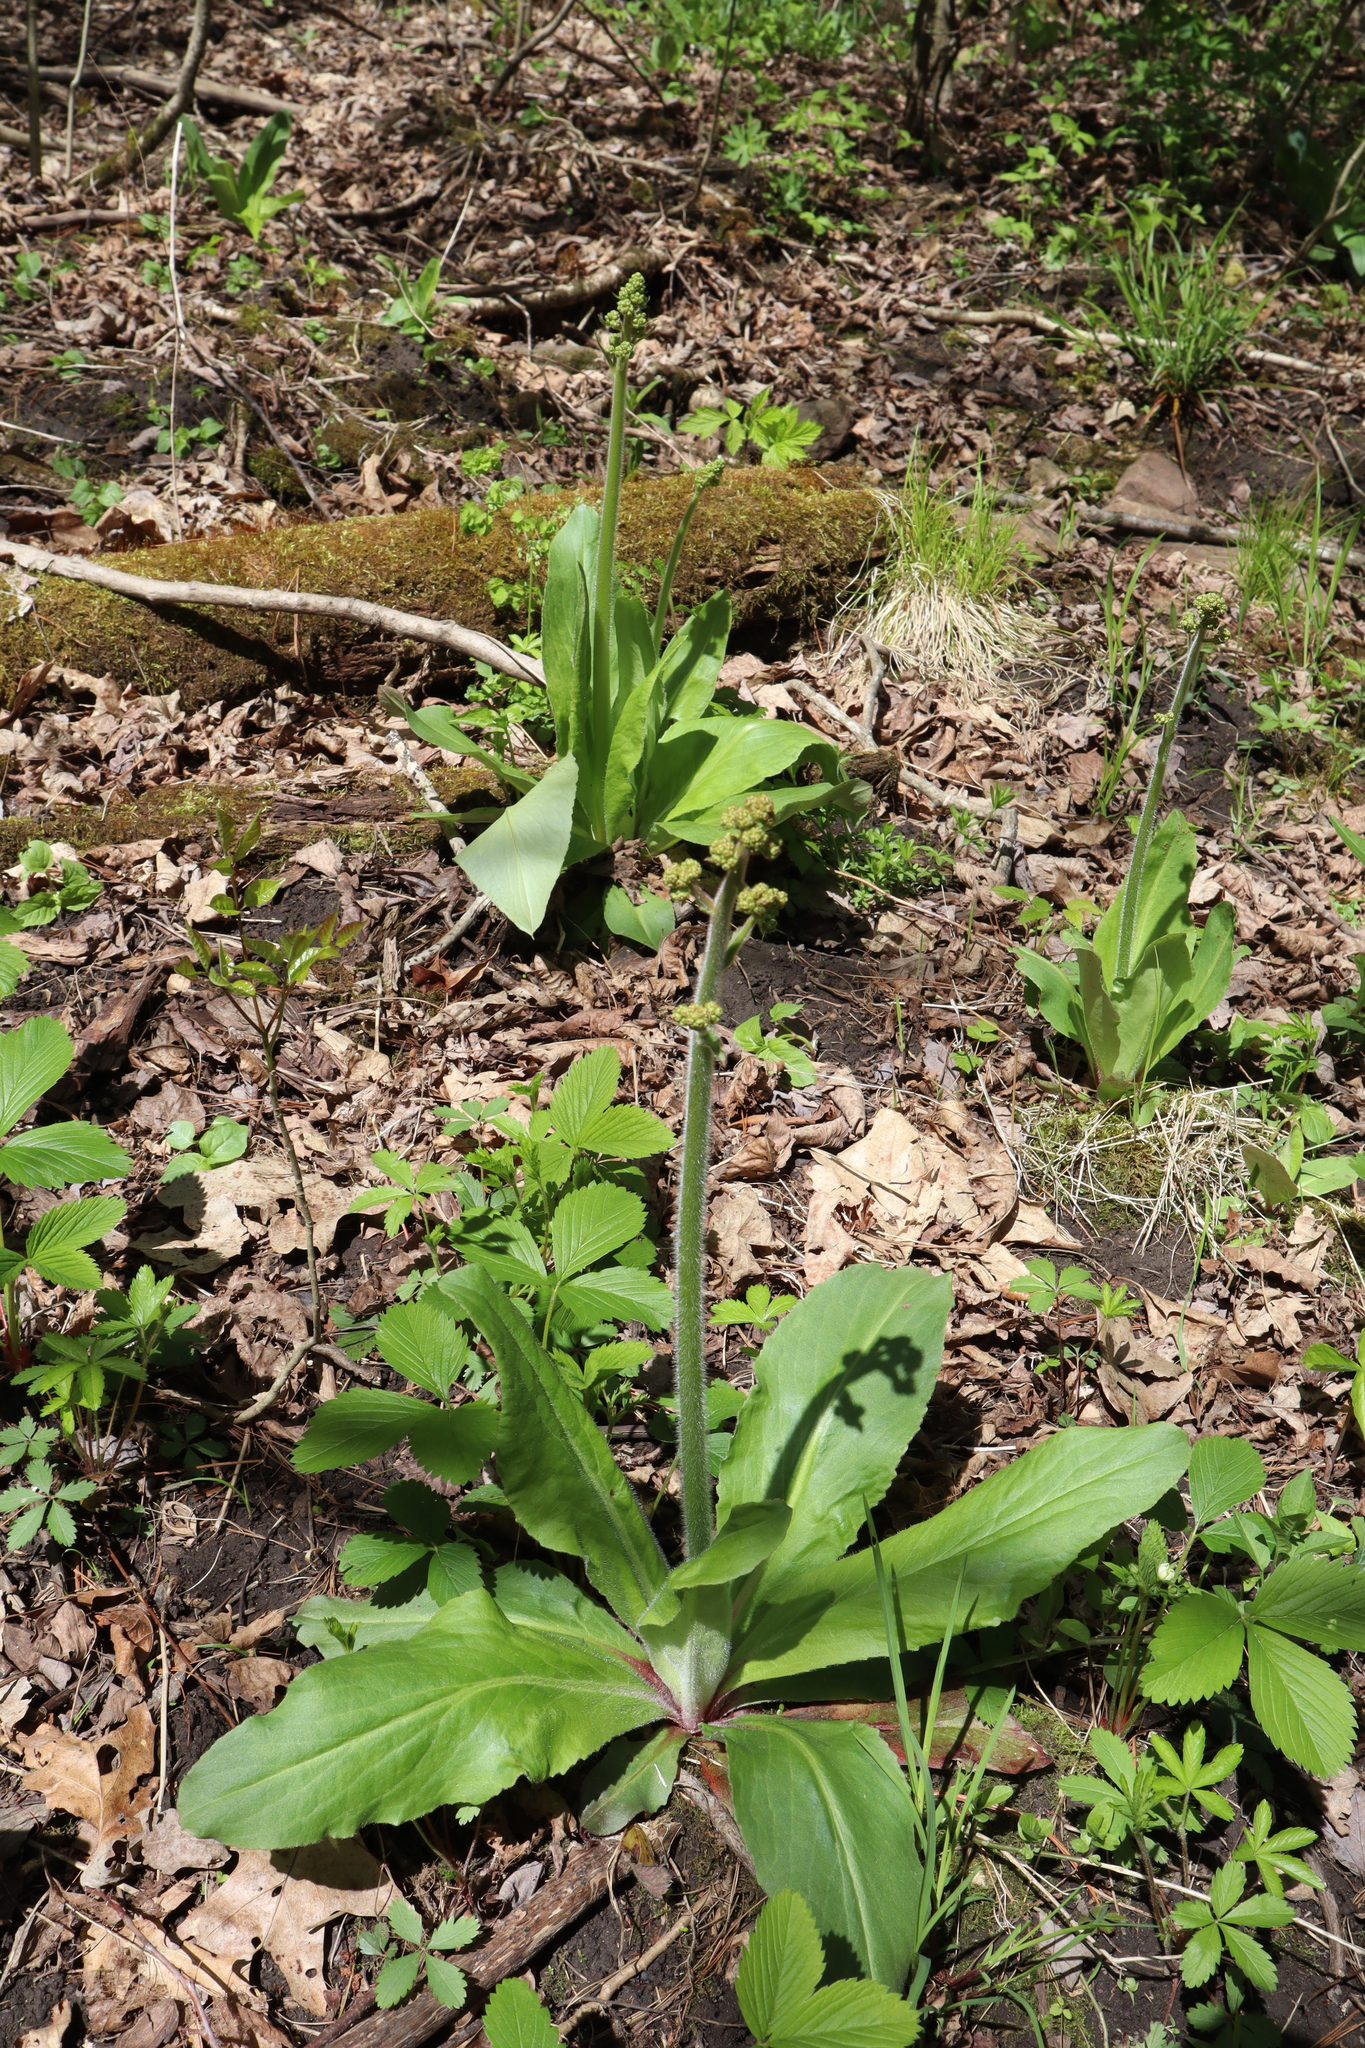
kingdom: Plantae
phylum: Tracheophyta
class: Magnoliopsida
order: Saxifragales
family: Saxifragaceae
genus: Micranthes
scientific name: Micranthes pensylvanica
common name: Marsh saxifrage
